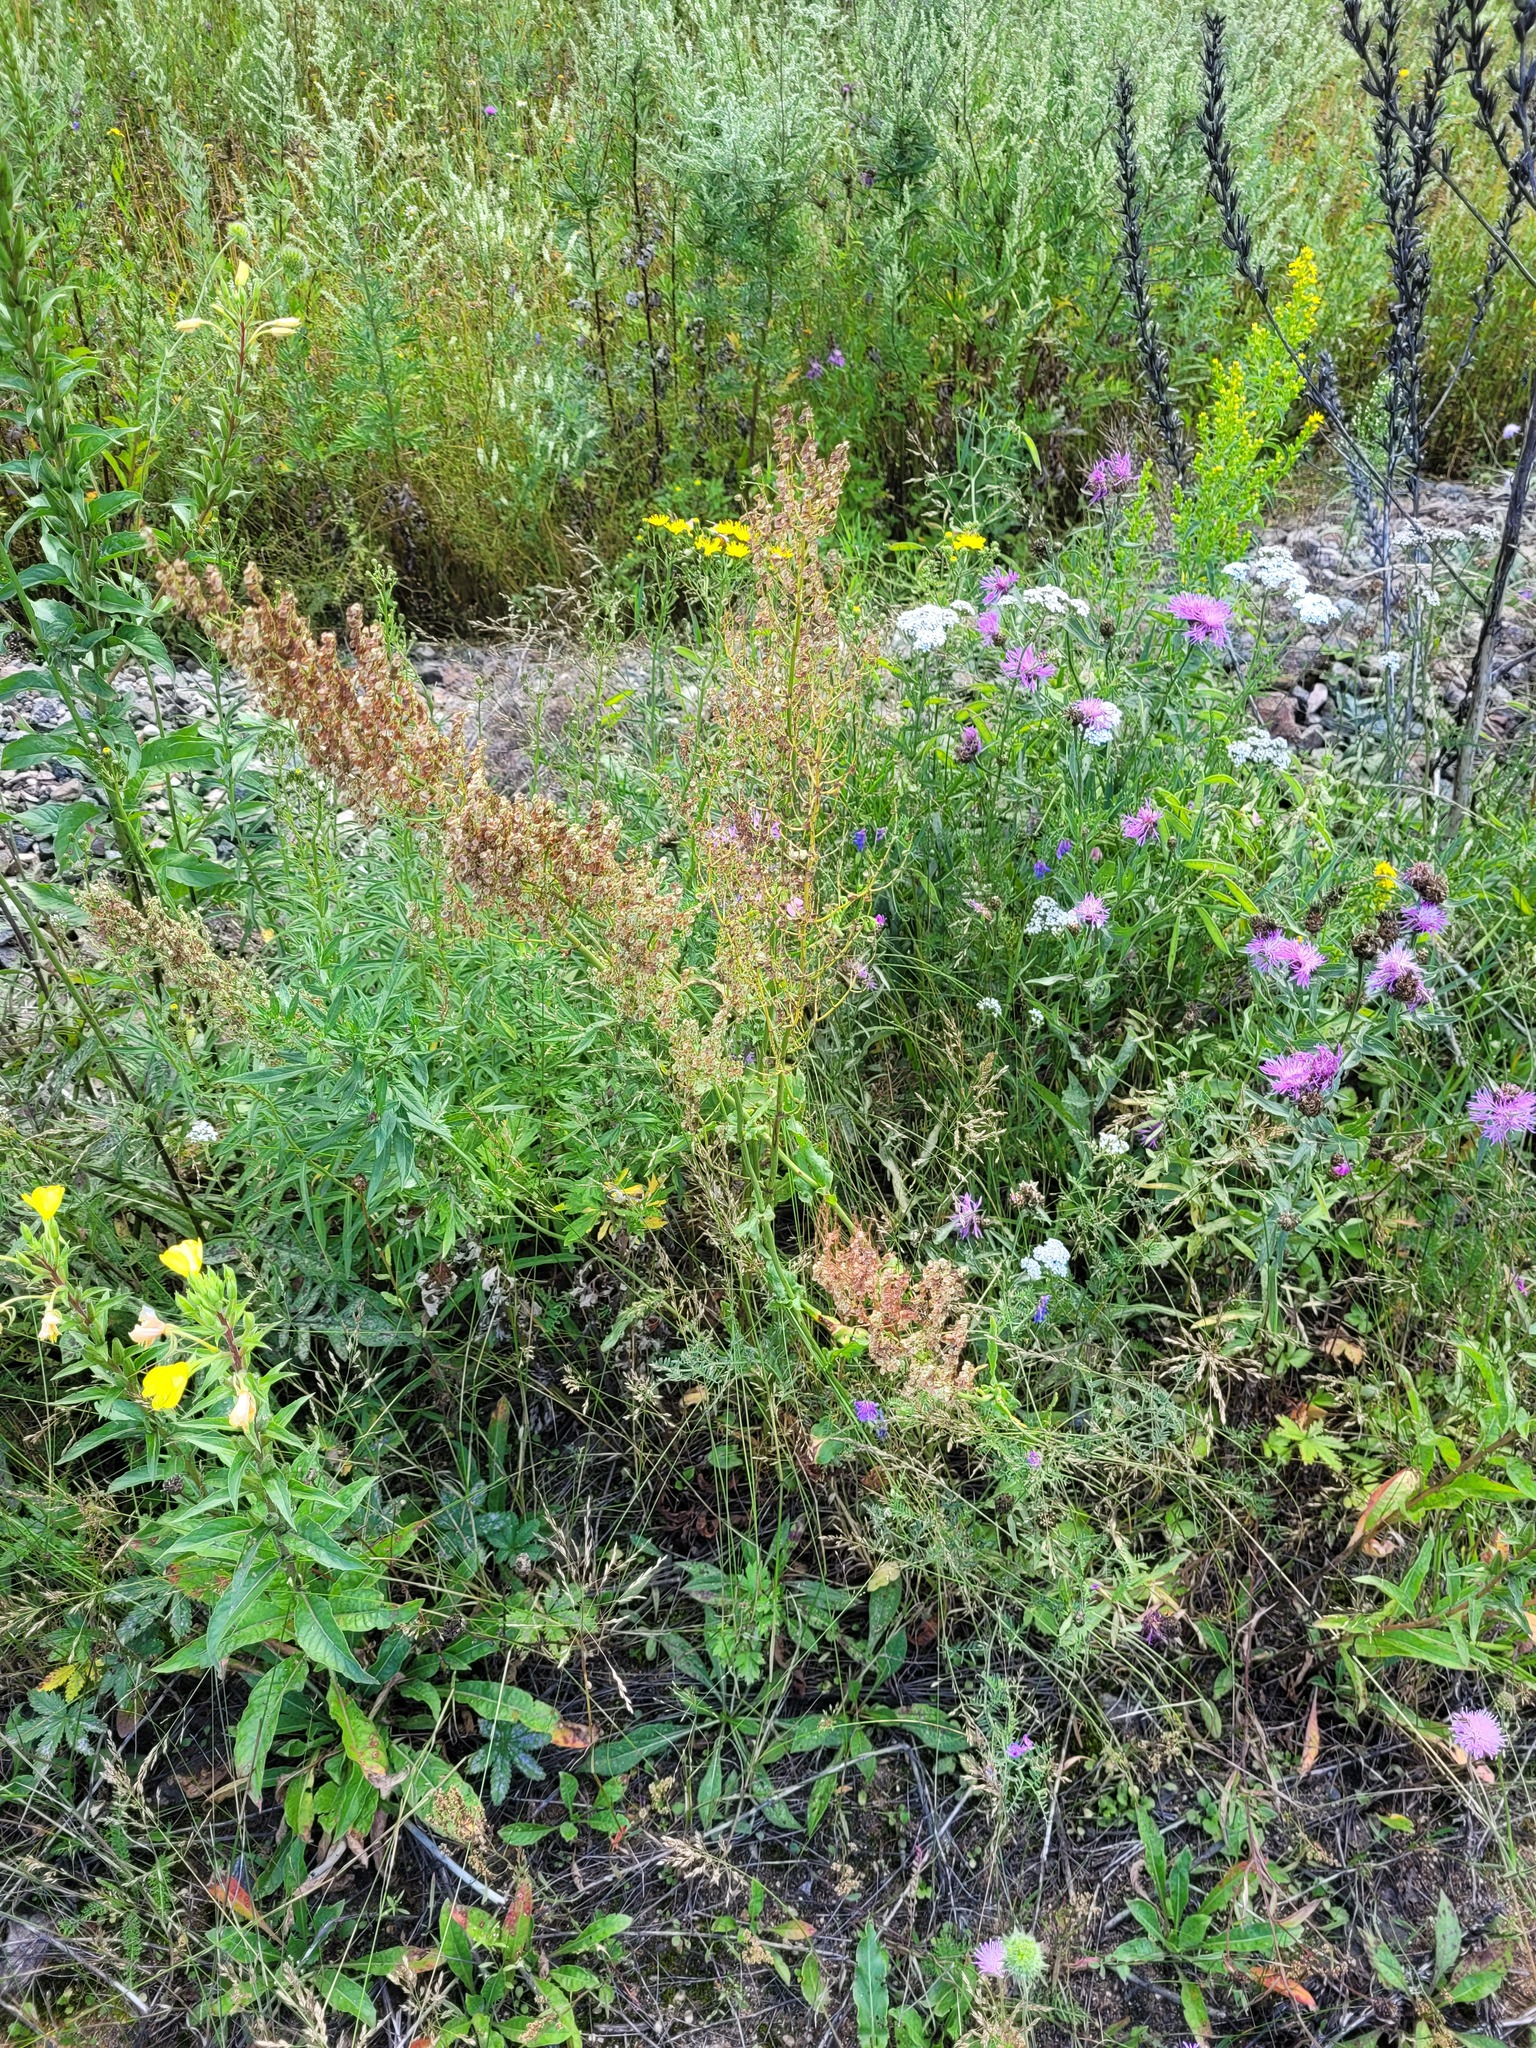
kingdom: Plantae
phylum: Tracheophyta
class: Magnoliopsida
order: Caryophyllales
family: Polygonaceae
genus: Rumex
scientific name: Rumex thyrsiflorus
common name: Garden sorrel
